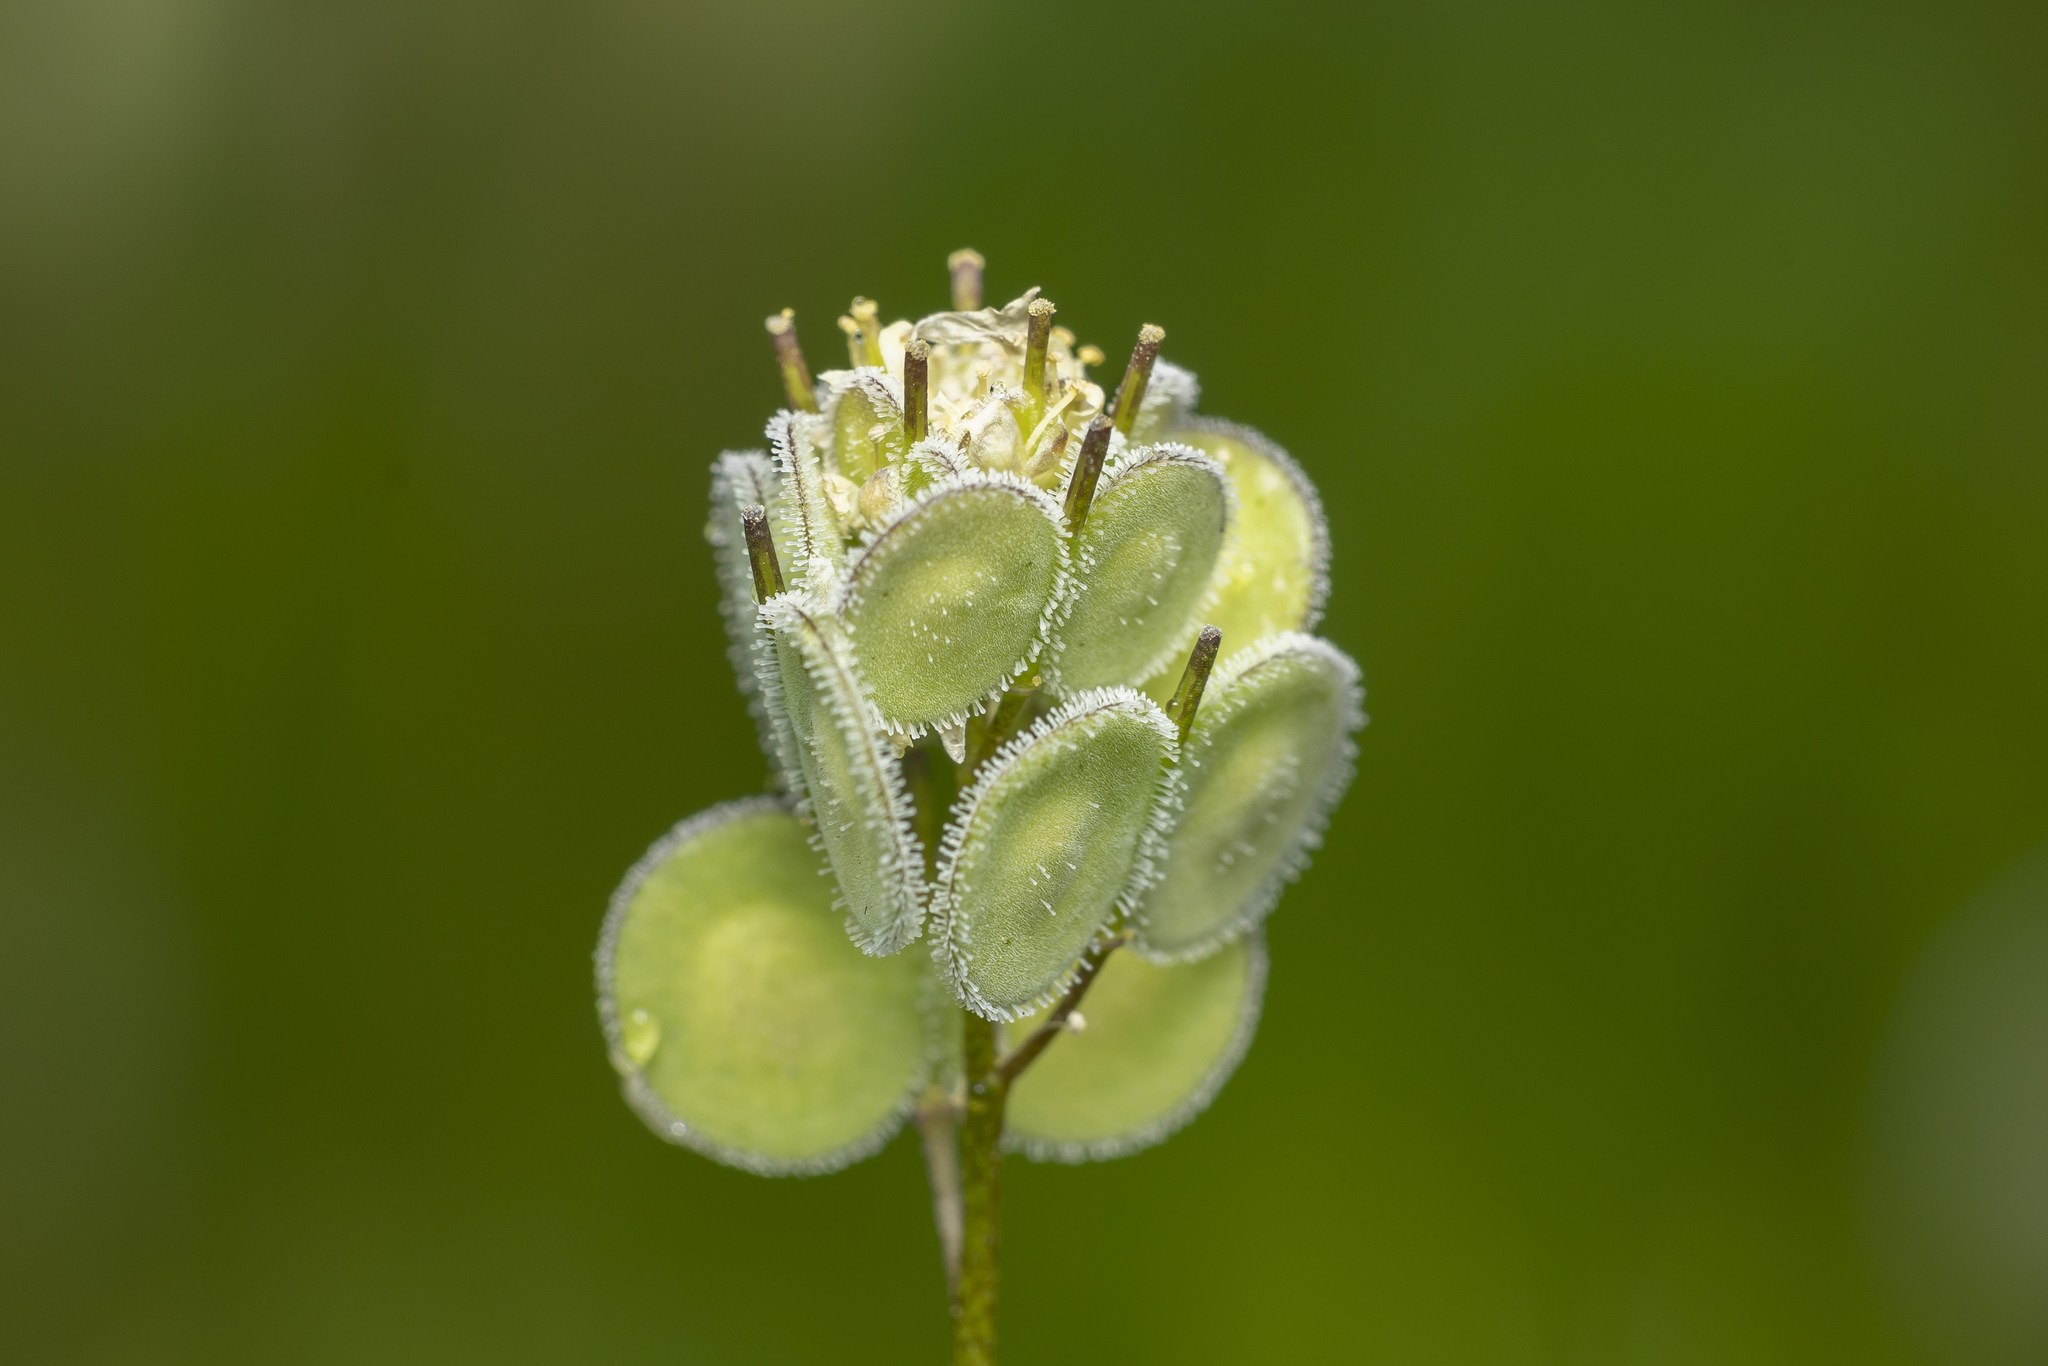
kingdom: Plantae
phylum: Tracheophyta
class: Magnoliopsida
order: Brassicales
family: Brassicaceae
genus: Biscutella
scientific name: Biscutella didyma
